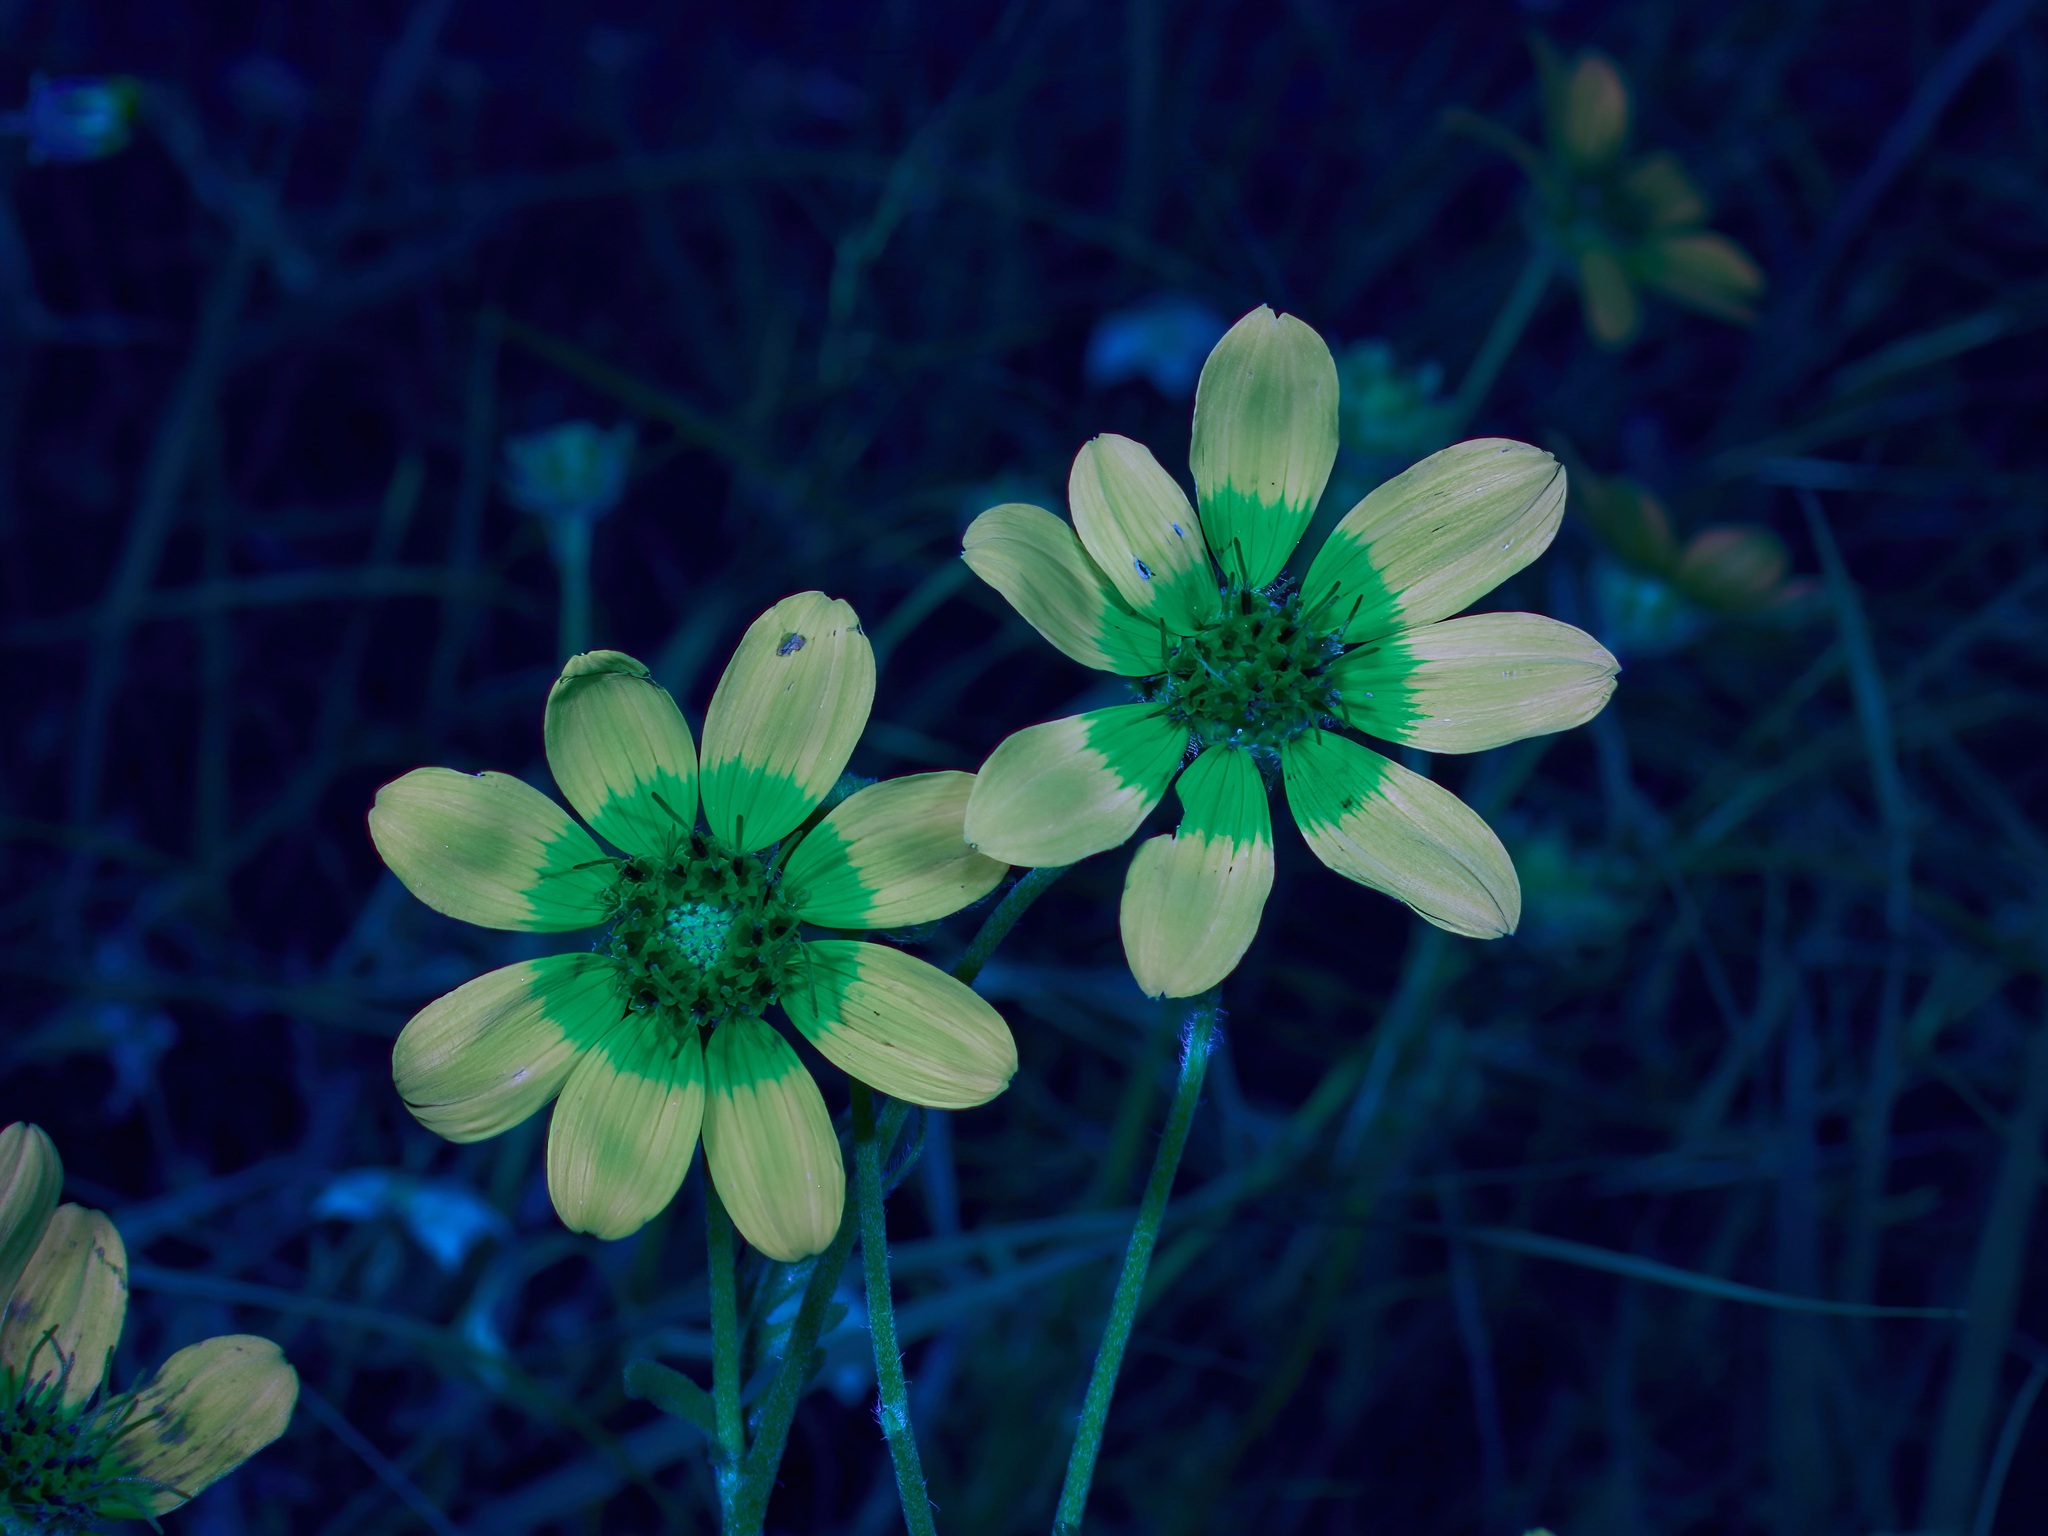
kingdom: Plantae
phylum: Tracheophyta
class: Magnoliopsida
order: Asterales
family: Asteraceae
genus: Engelmannia
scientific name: Engelmannia peristenia
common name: Engelmann's daisy
